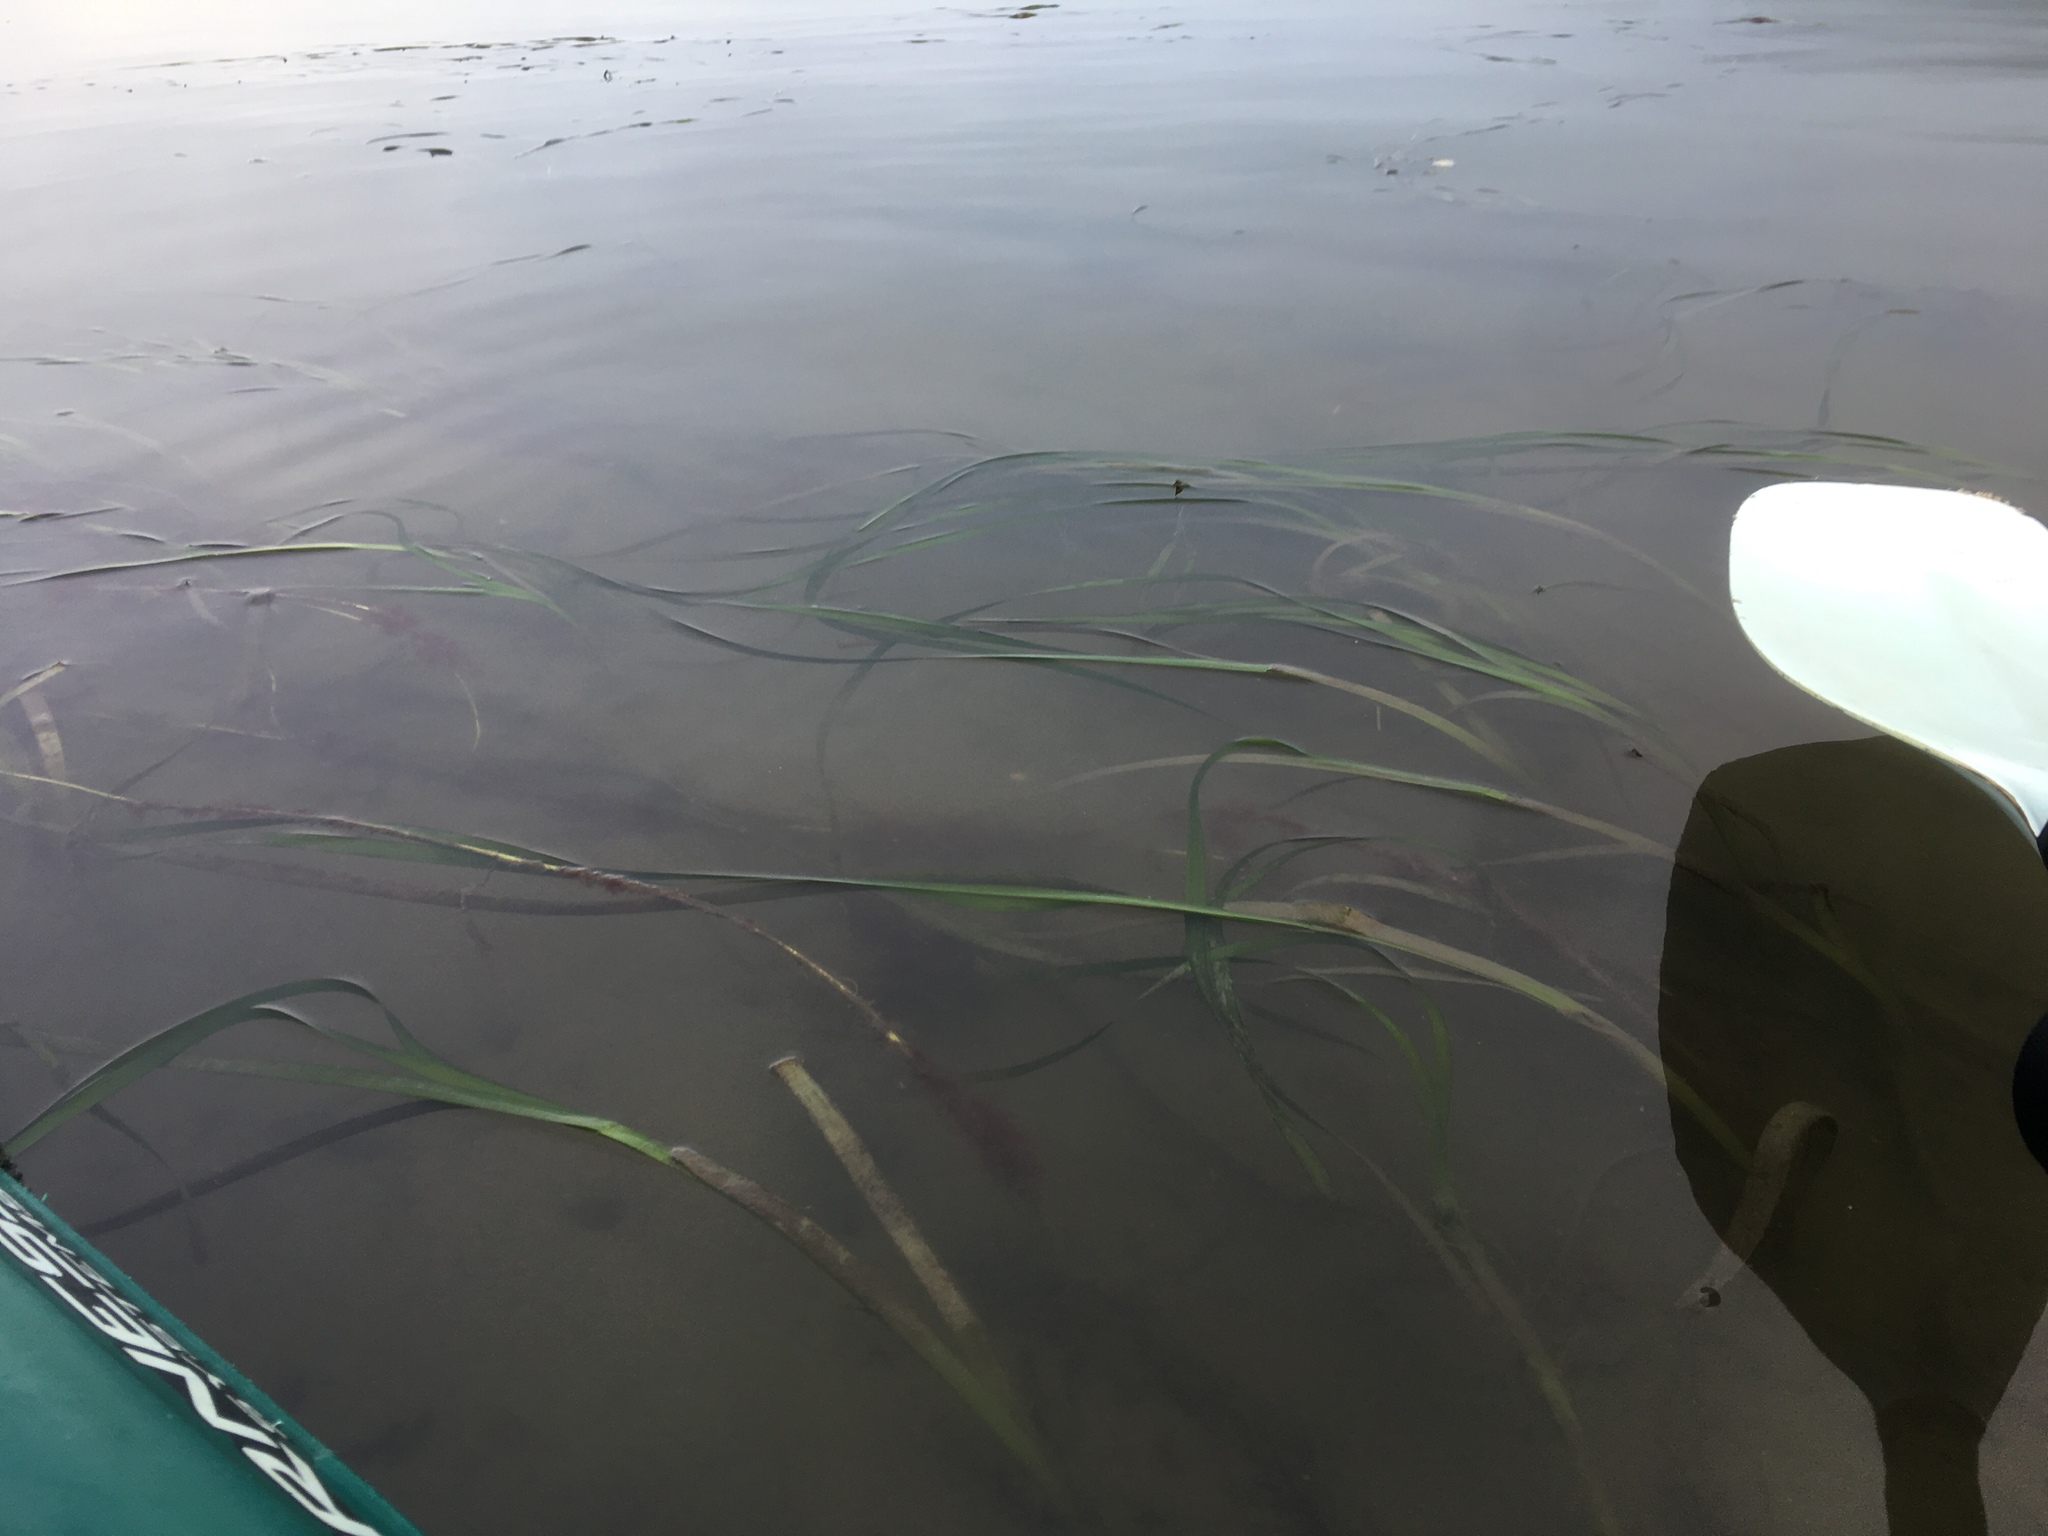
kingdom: Plantae
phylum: Tracheophyta
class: Liliopsida
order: Alismatales
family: Zosteraceae
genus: Zostera
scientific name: Zostera marina
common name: Eelgrass
